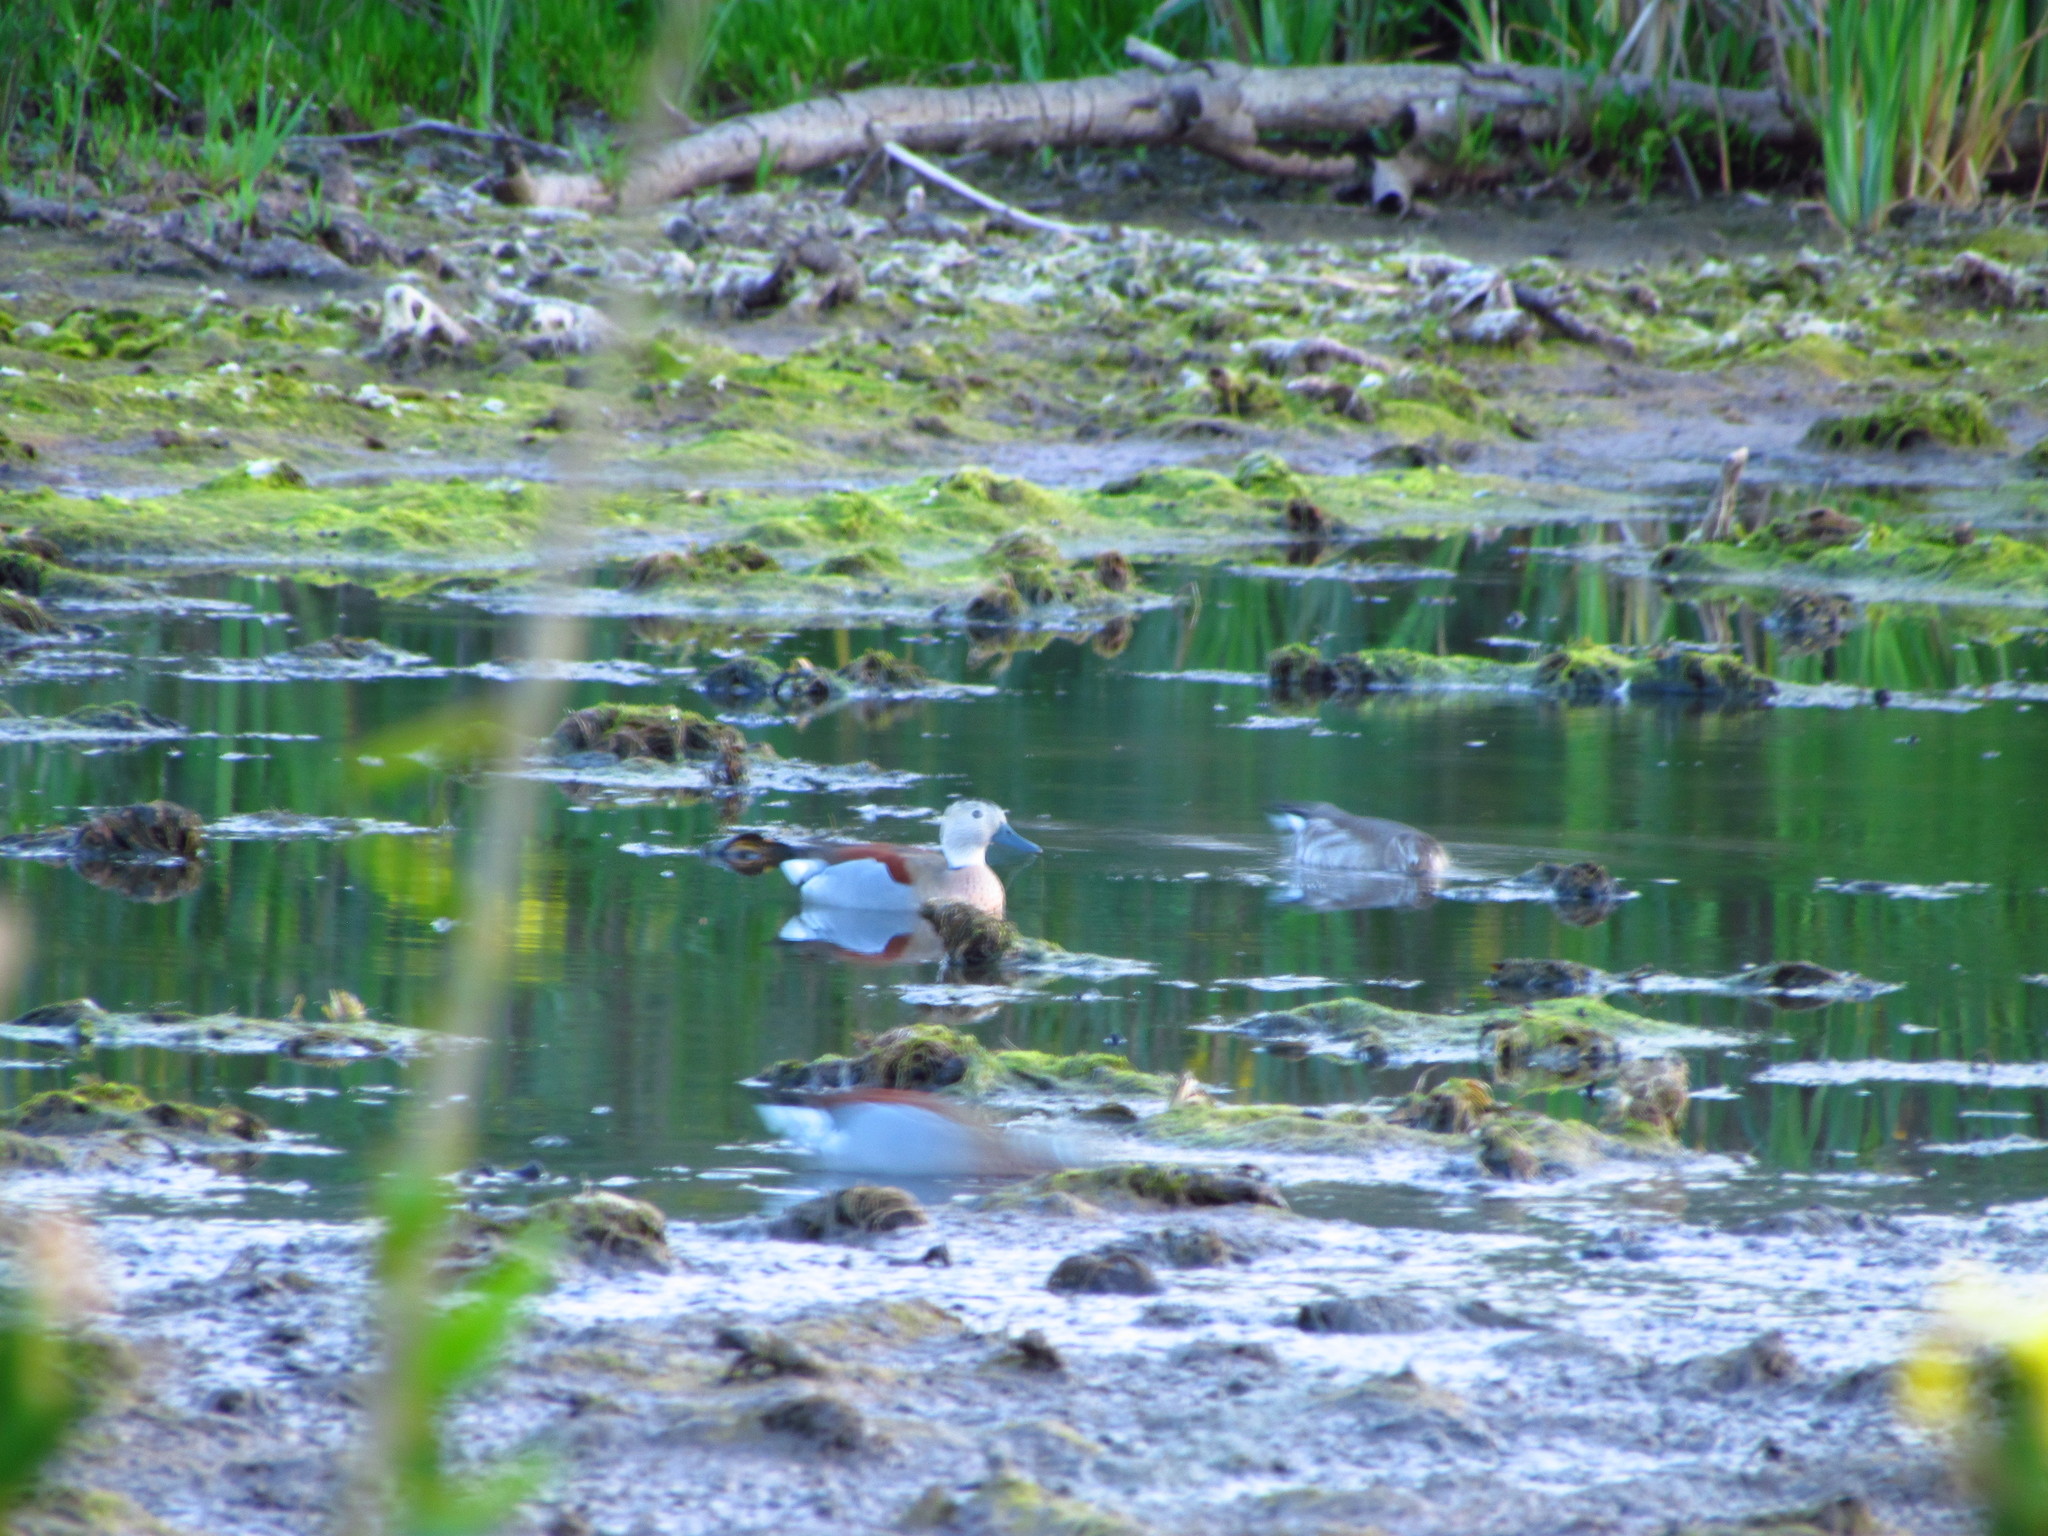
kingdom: Animalia
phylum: Chordata
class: Aves
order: Anseriformes
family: Anatidae
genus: Callonetta
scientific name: Callonetta leucophrys
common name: Ringed teal
